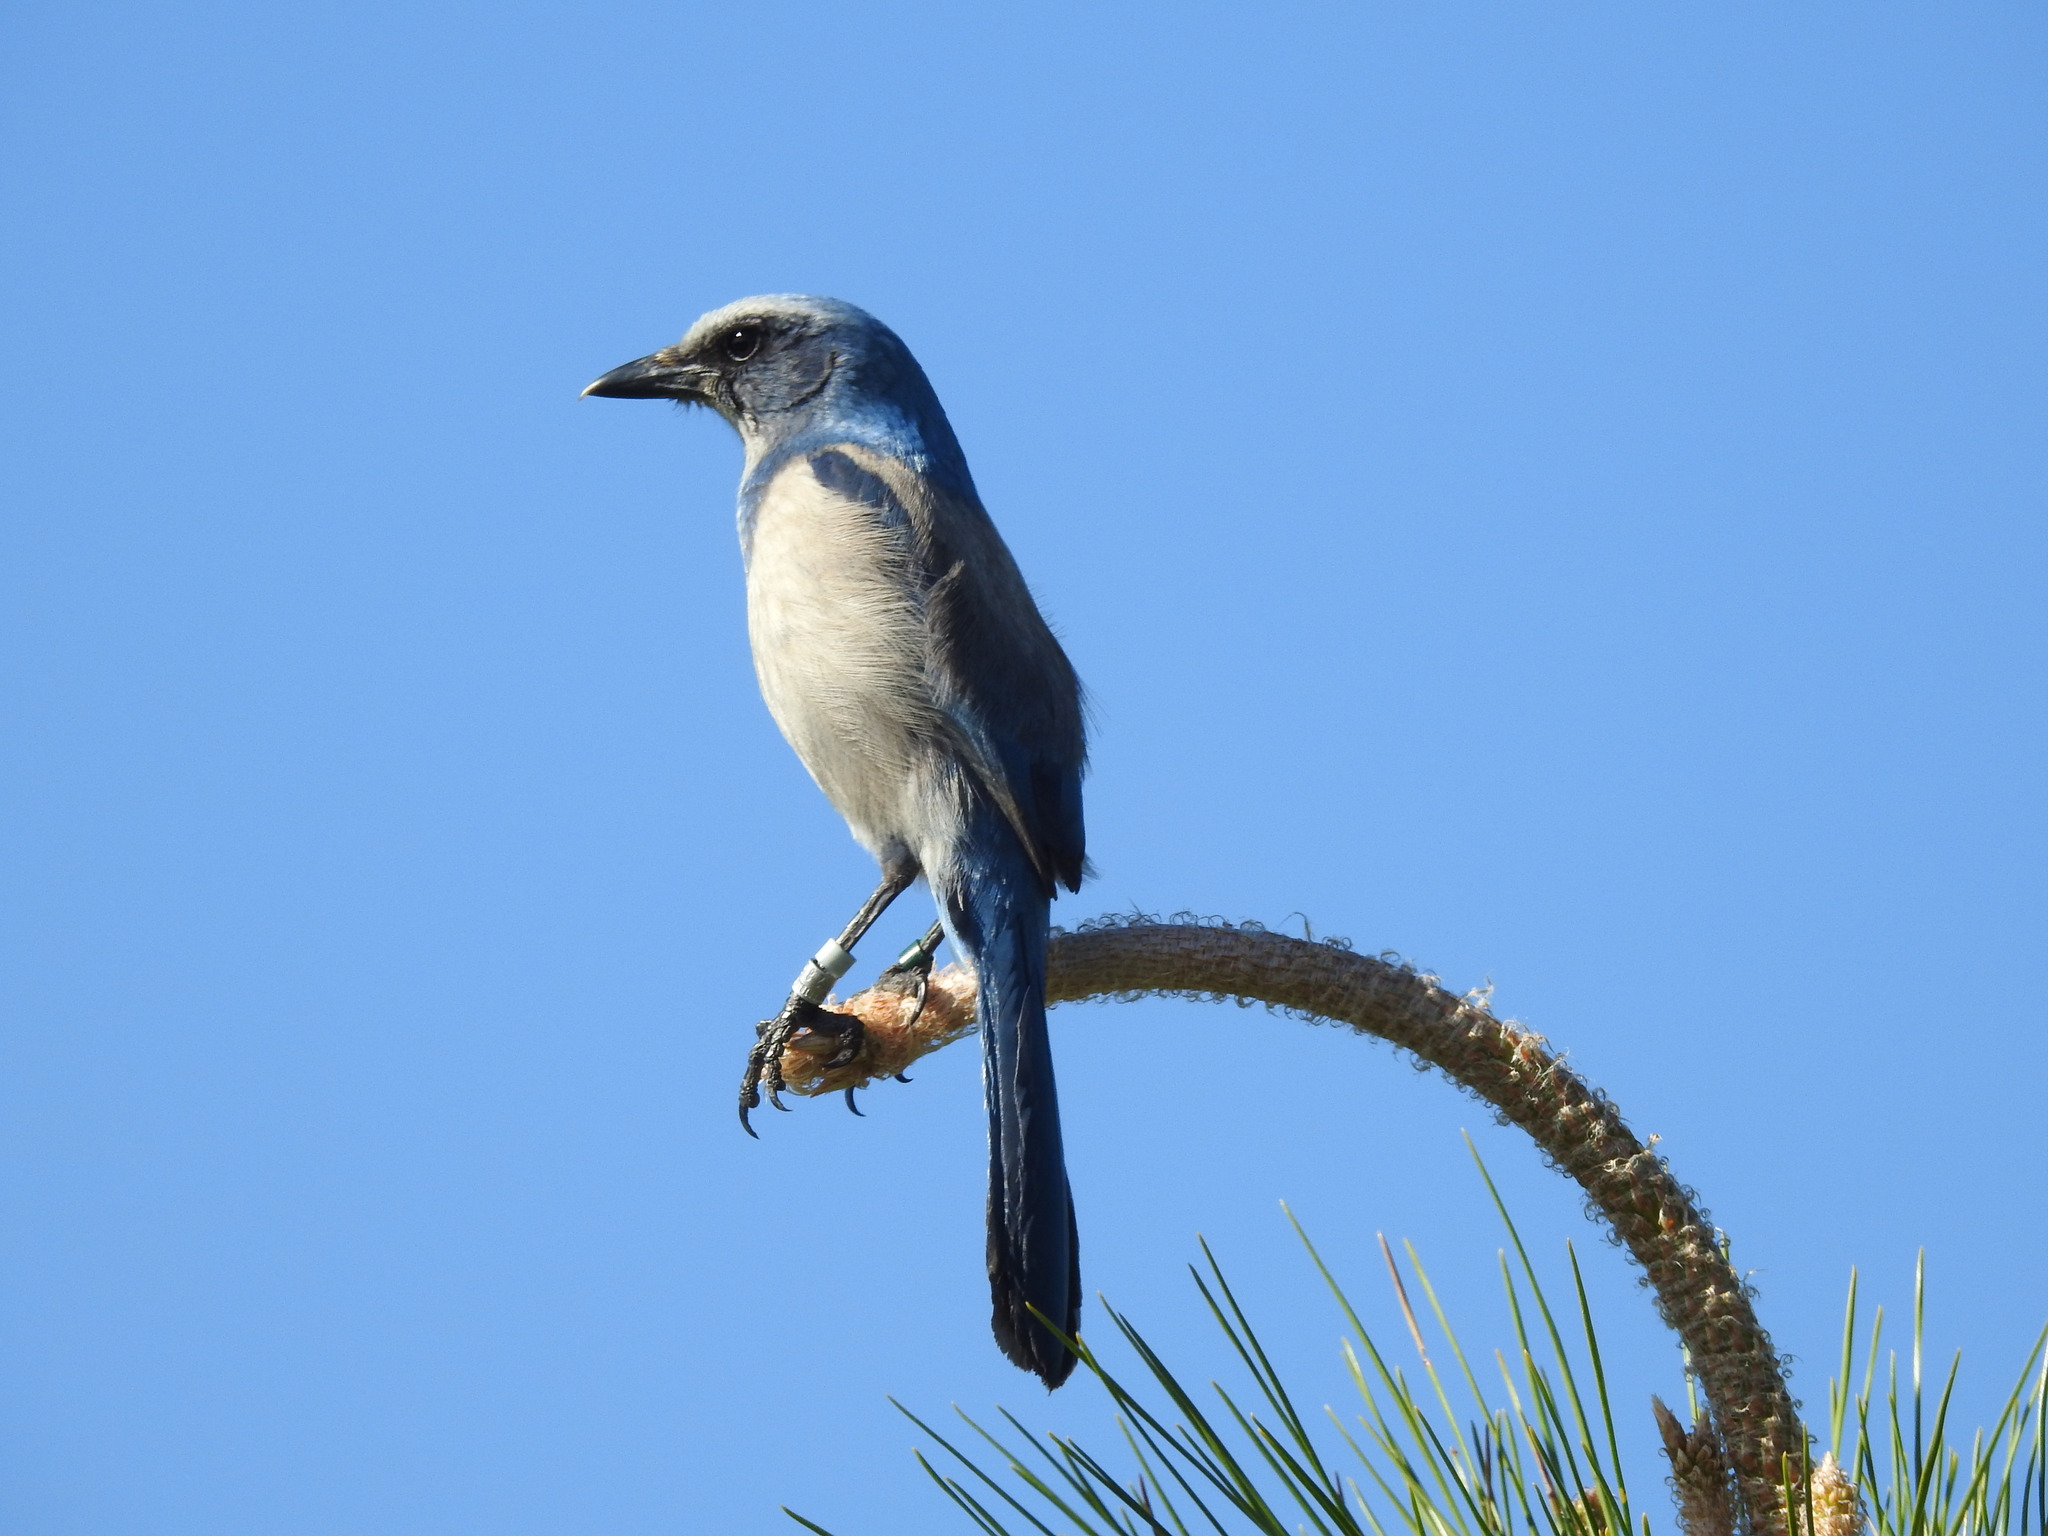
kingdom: Animalia
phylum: Chordata
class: Aves
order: Passeriformes
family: Corvidae
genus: Aphelocoma
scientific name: Aphelocoma coerulescens
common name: Florida scrub jay
